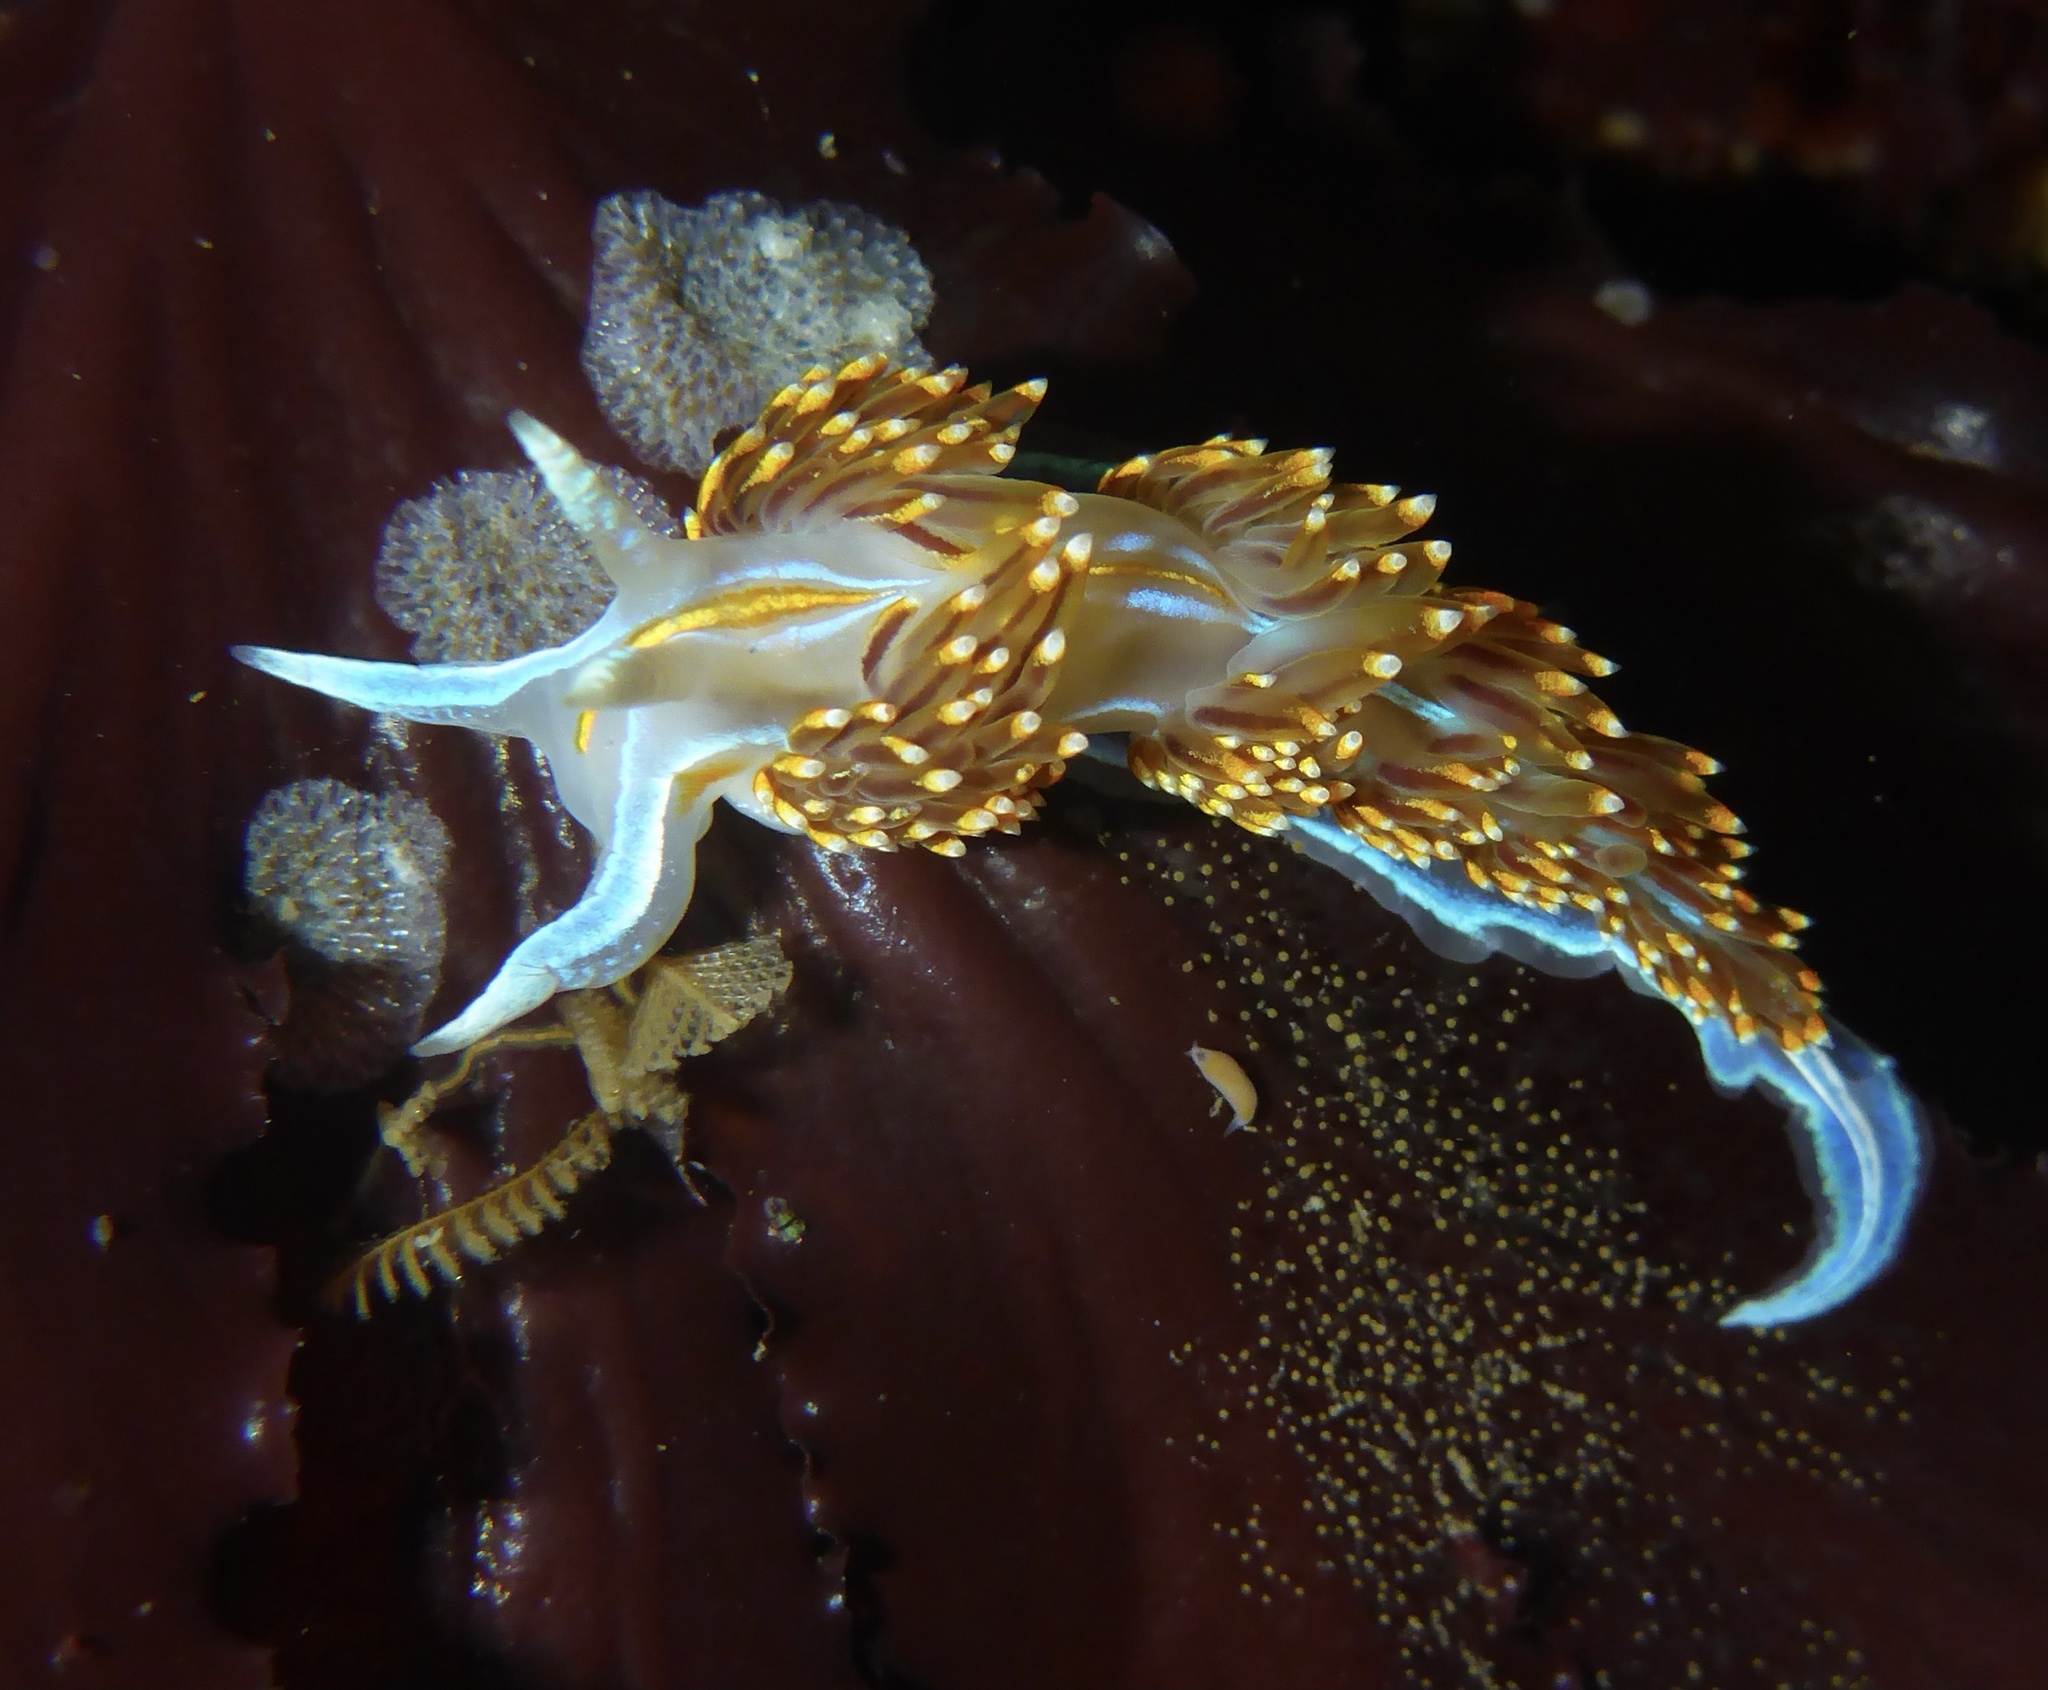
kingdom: Animalia
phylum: Mollusca
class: Gastropoda
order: Nudibranchia
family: Myrrhinidae
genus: Hermissenda
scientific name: Hermissenda opalescens
